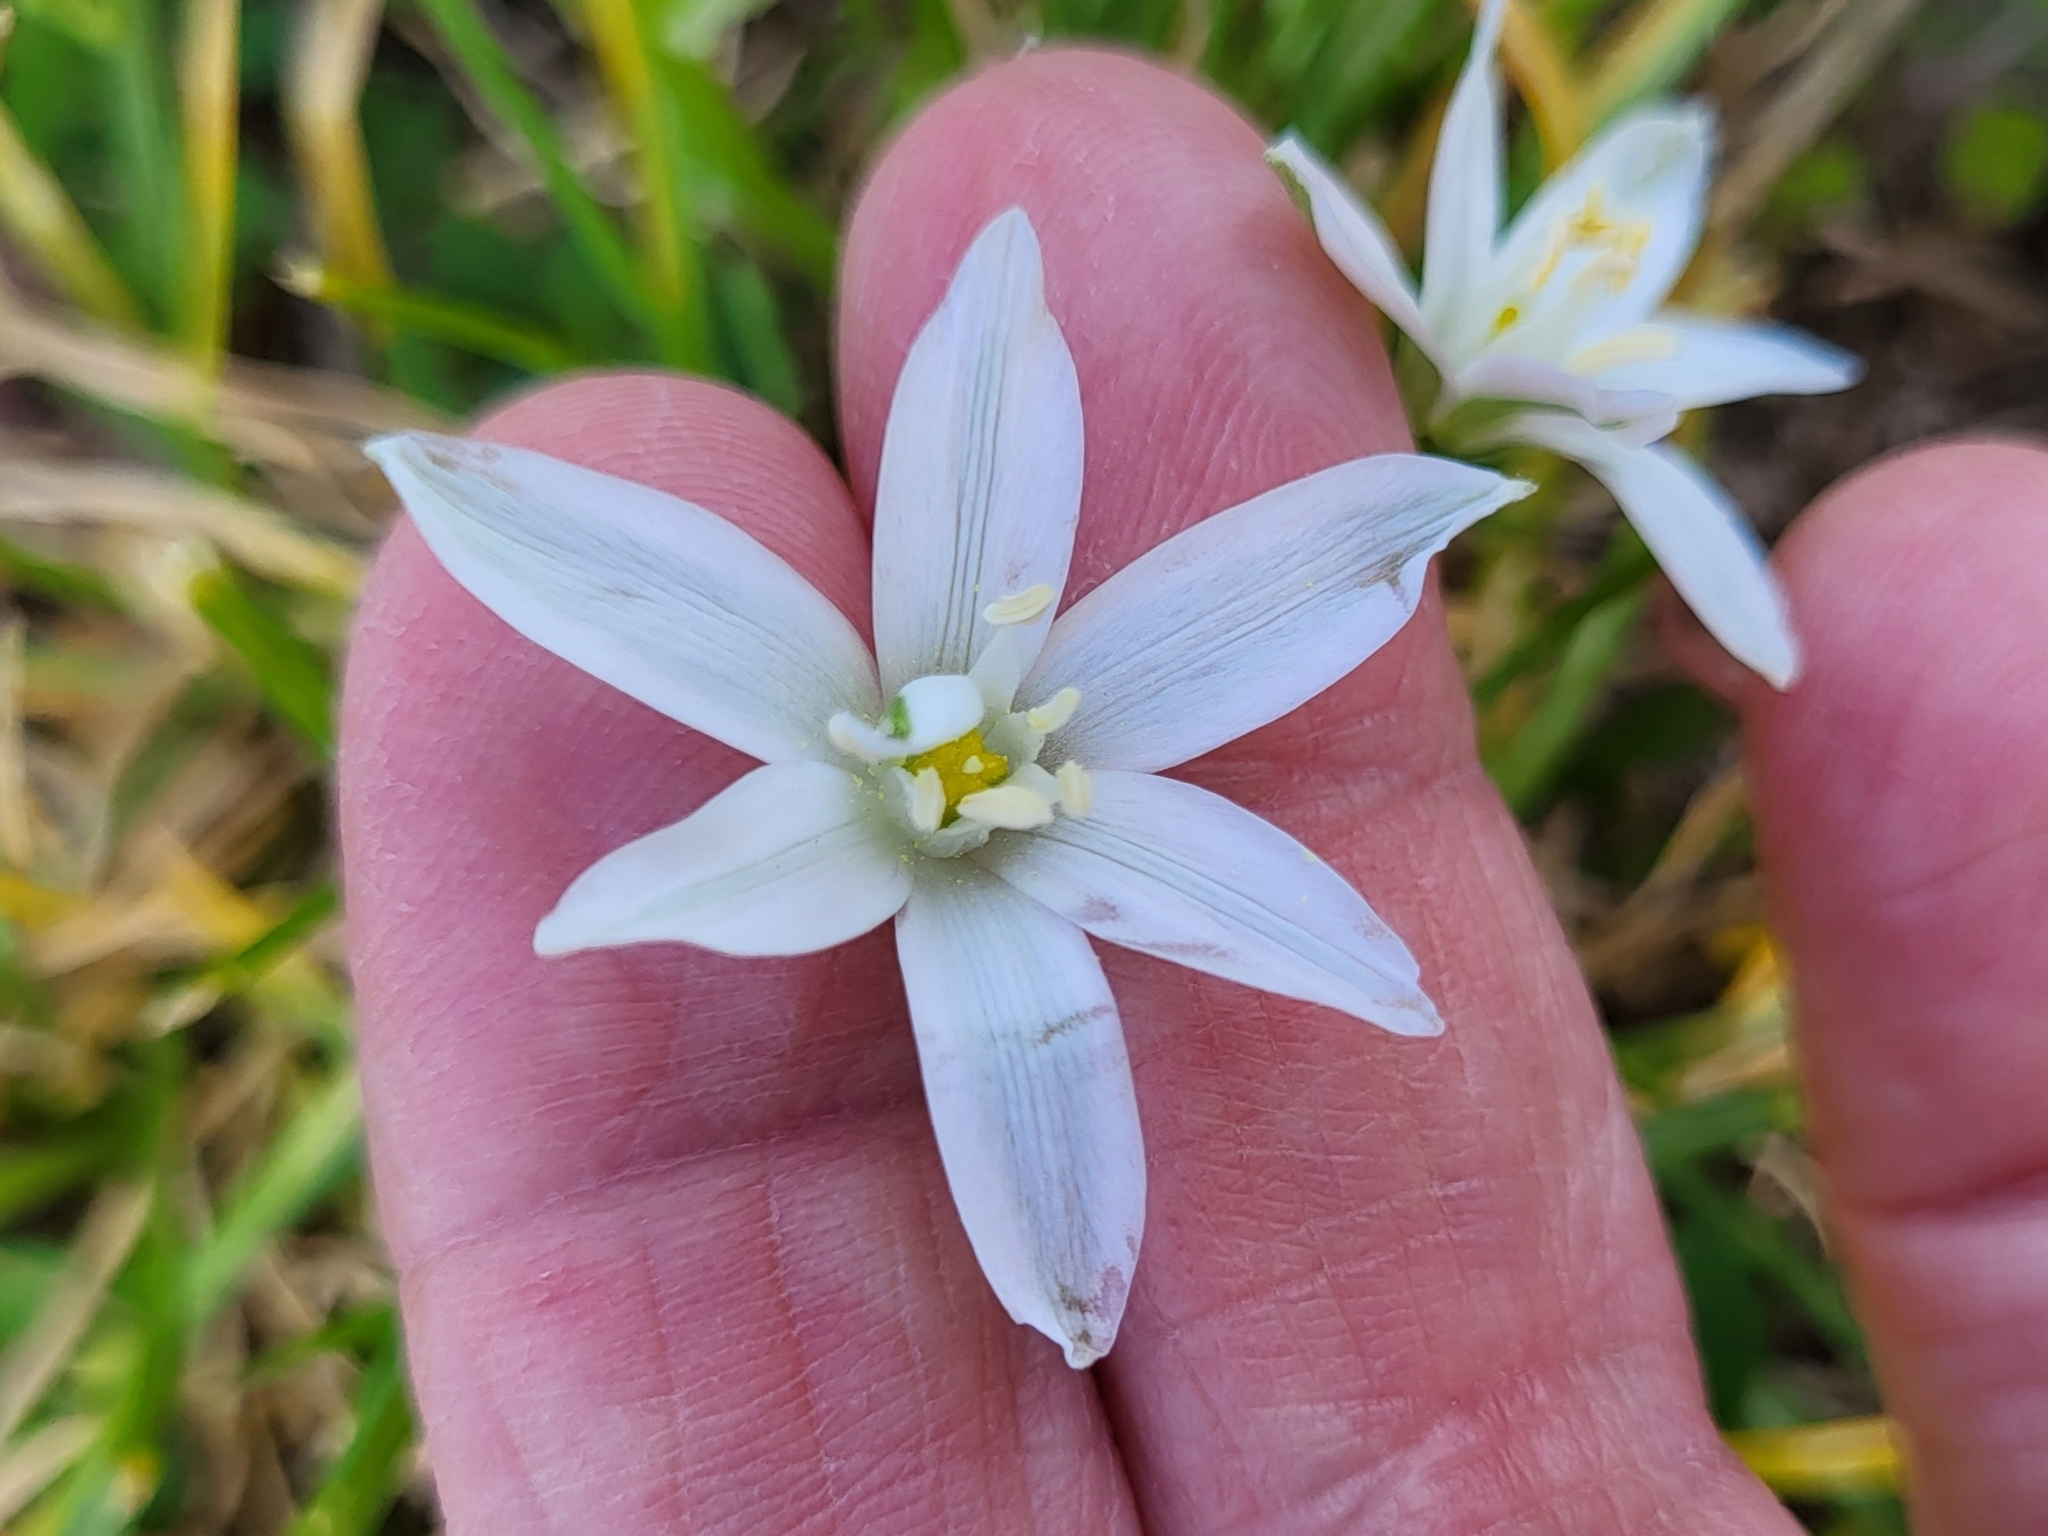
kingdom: Plantae
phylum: Tracheophyta
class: Liliopsida
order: Asparagales
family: Asparagaceae
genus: Ornithogalum
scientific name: Ornithogalum umbellatum
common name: Garden star-of-bethlehem
